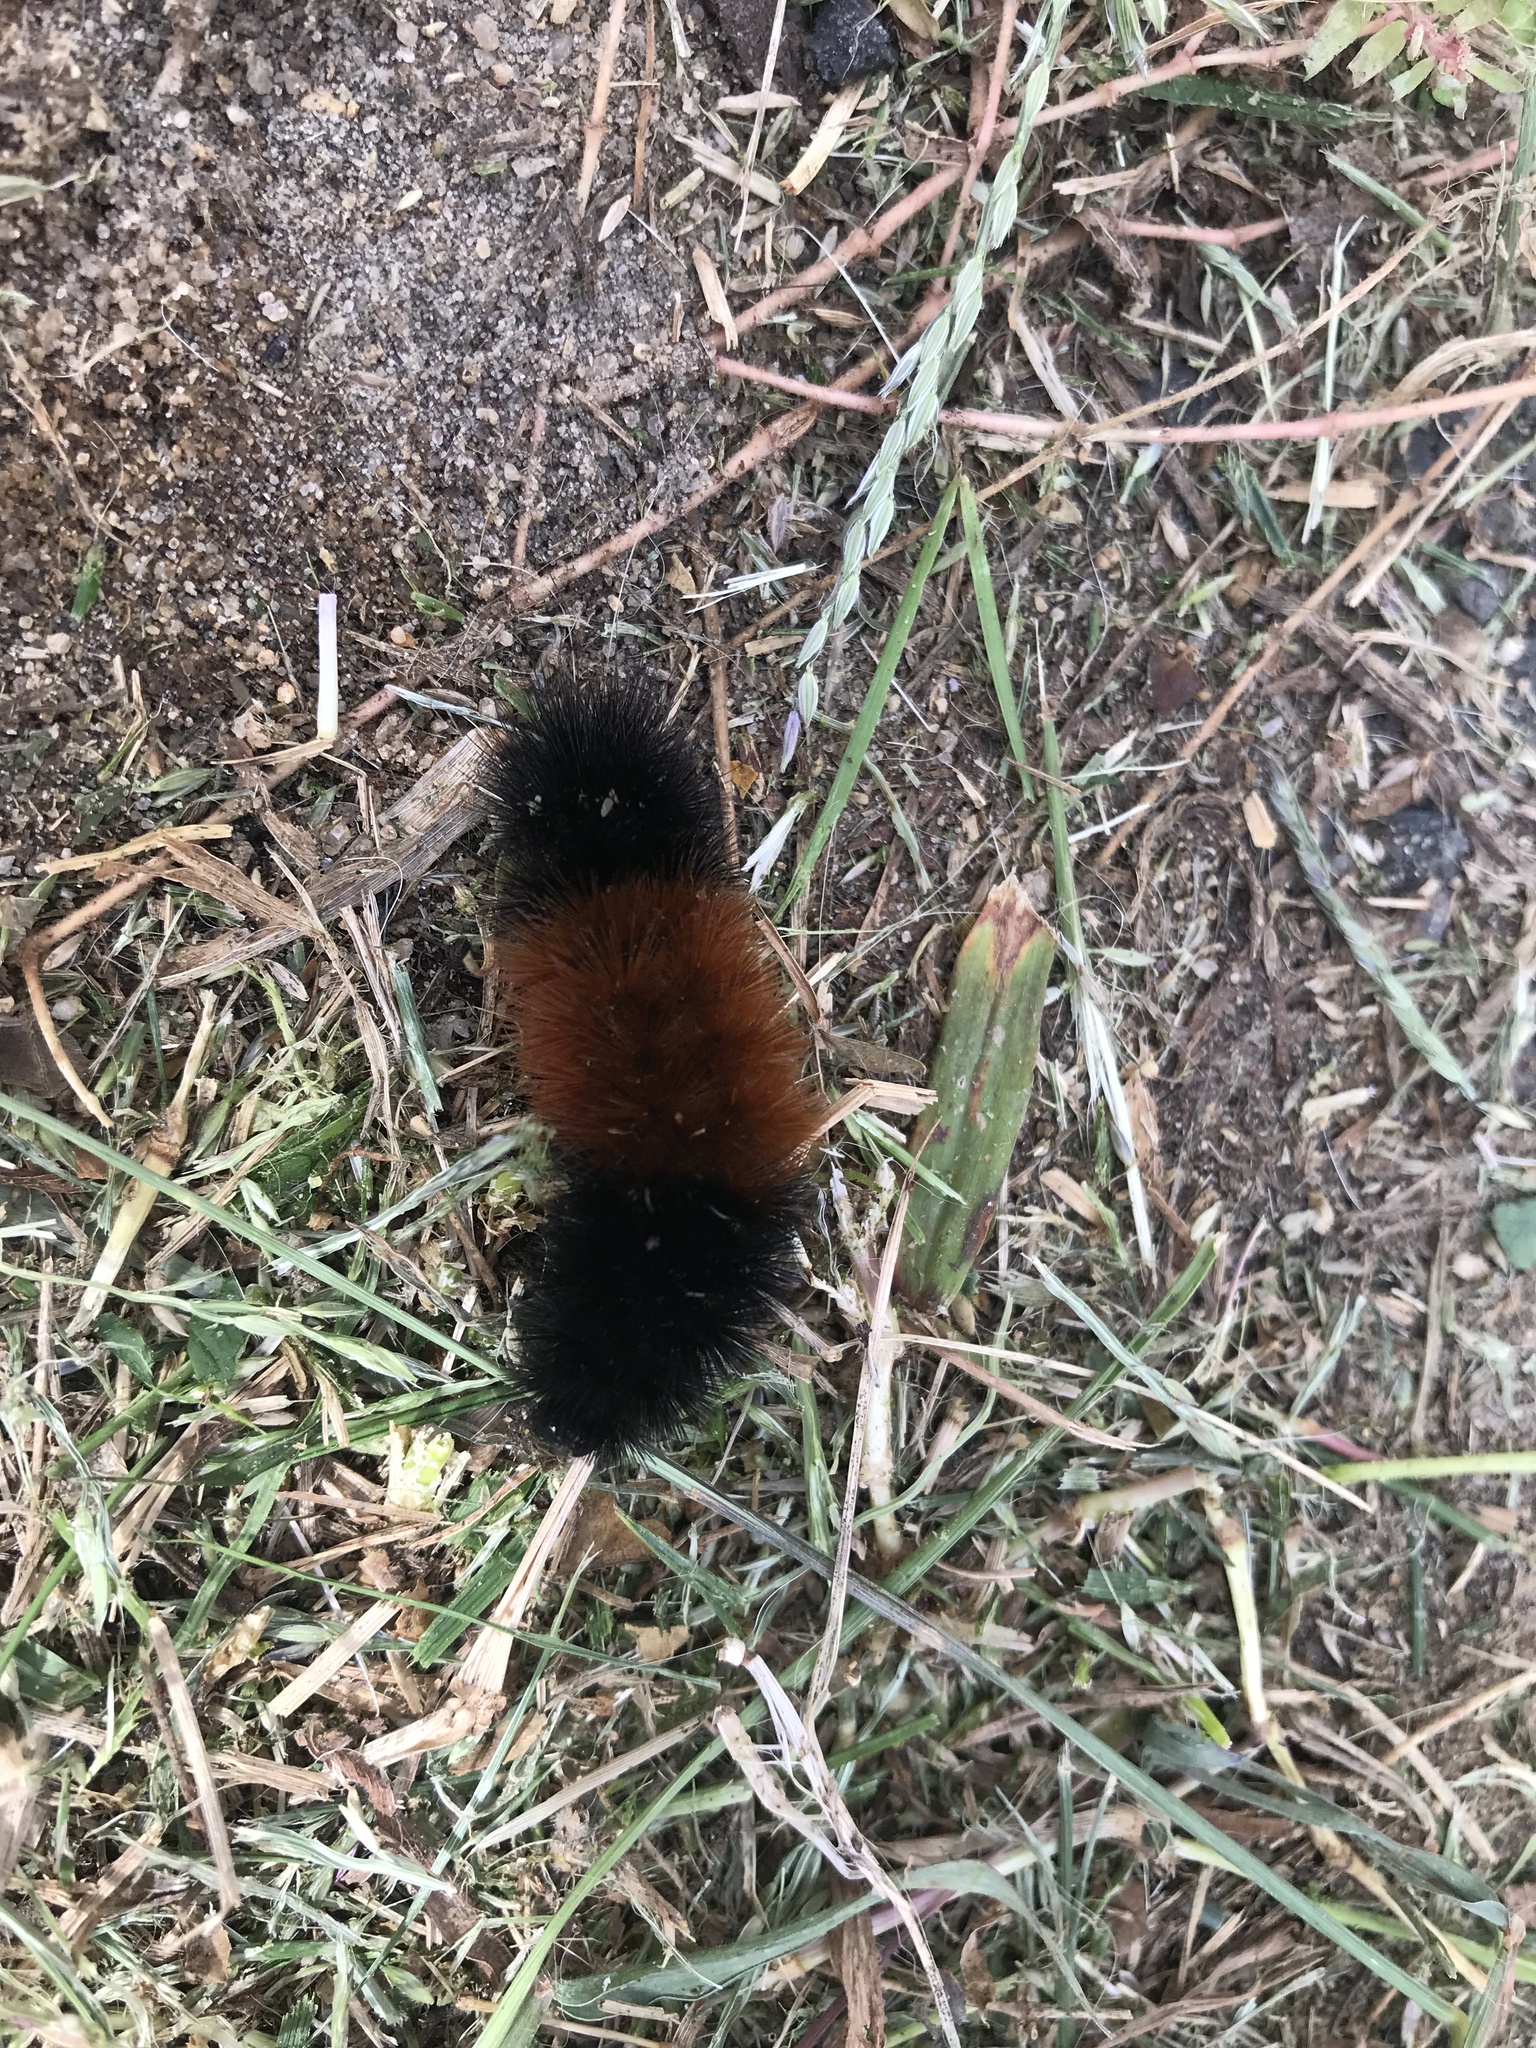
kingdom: Animalia
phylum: Arthropoda
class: Insecta
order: Lepidoptera
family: Erebidae
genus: Pyrrharctia
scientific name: Pyrrharctia isabella
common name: Isabella tiger moth
